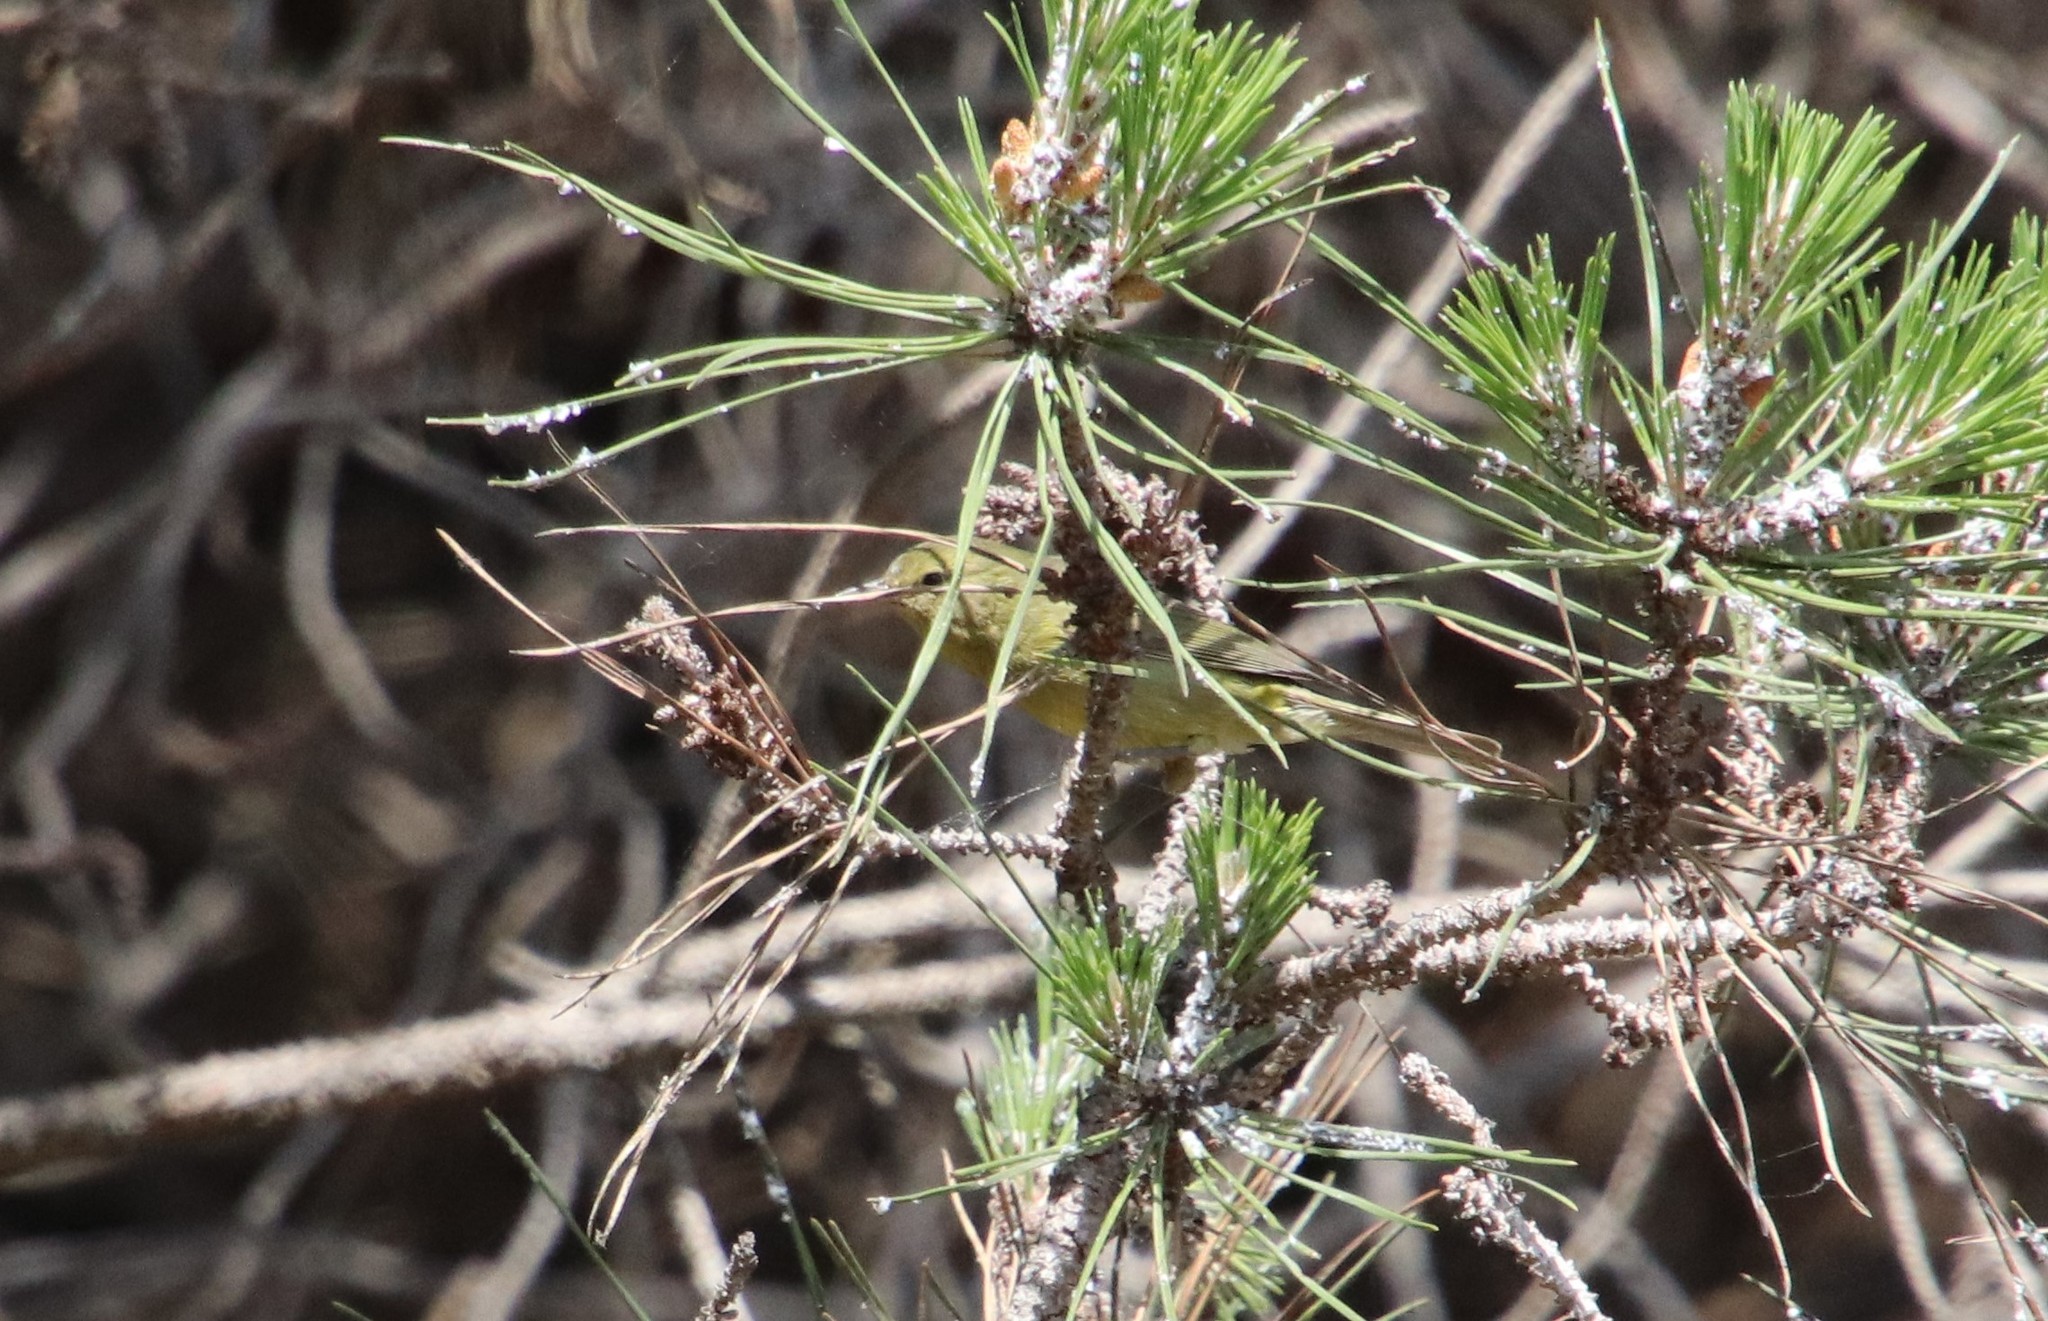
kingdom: Animalia
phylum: Chordata
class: Aves
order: Passeriformes
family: Parulidae
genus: Leiothlypis
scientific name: Leiothlypis celata
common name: Orange-crowned warbler
